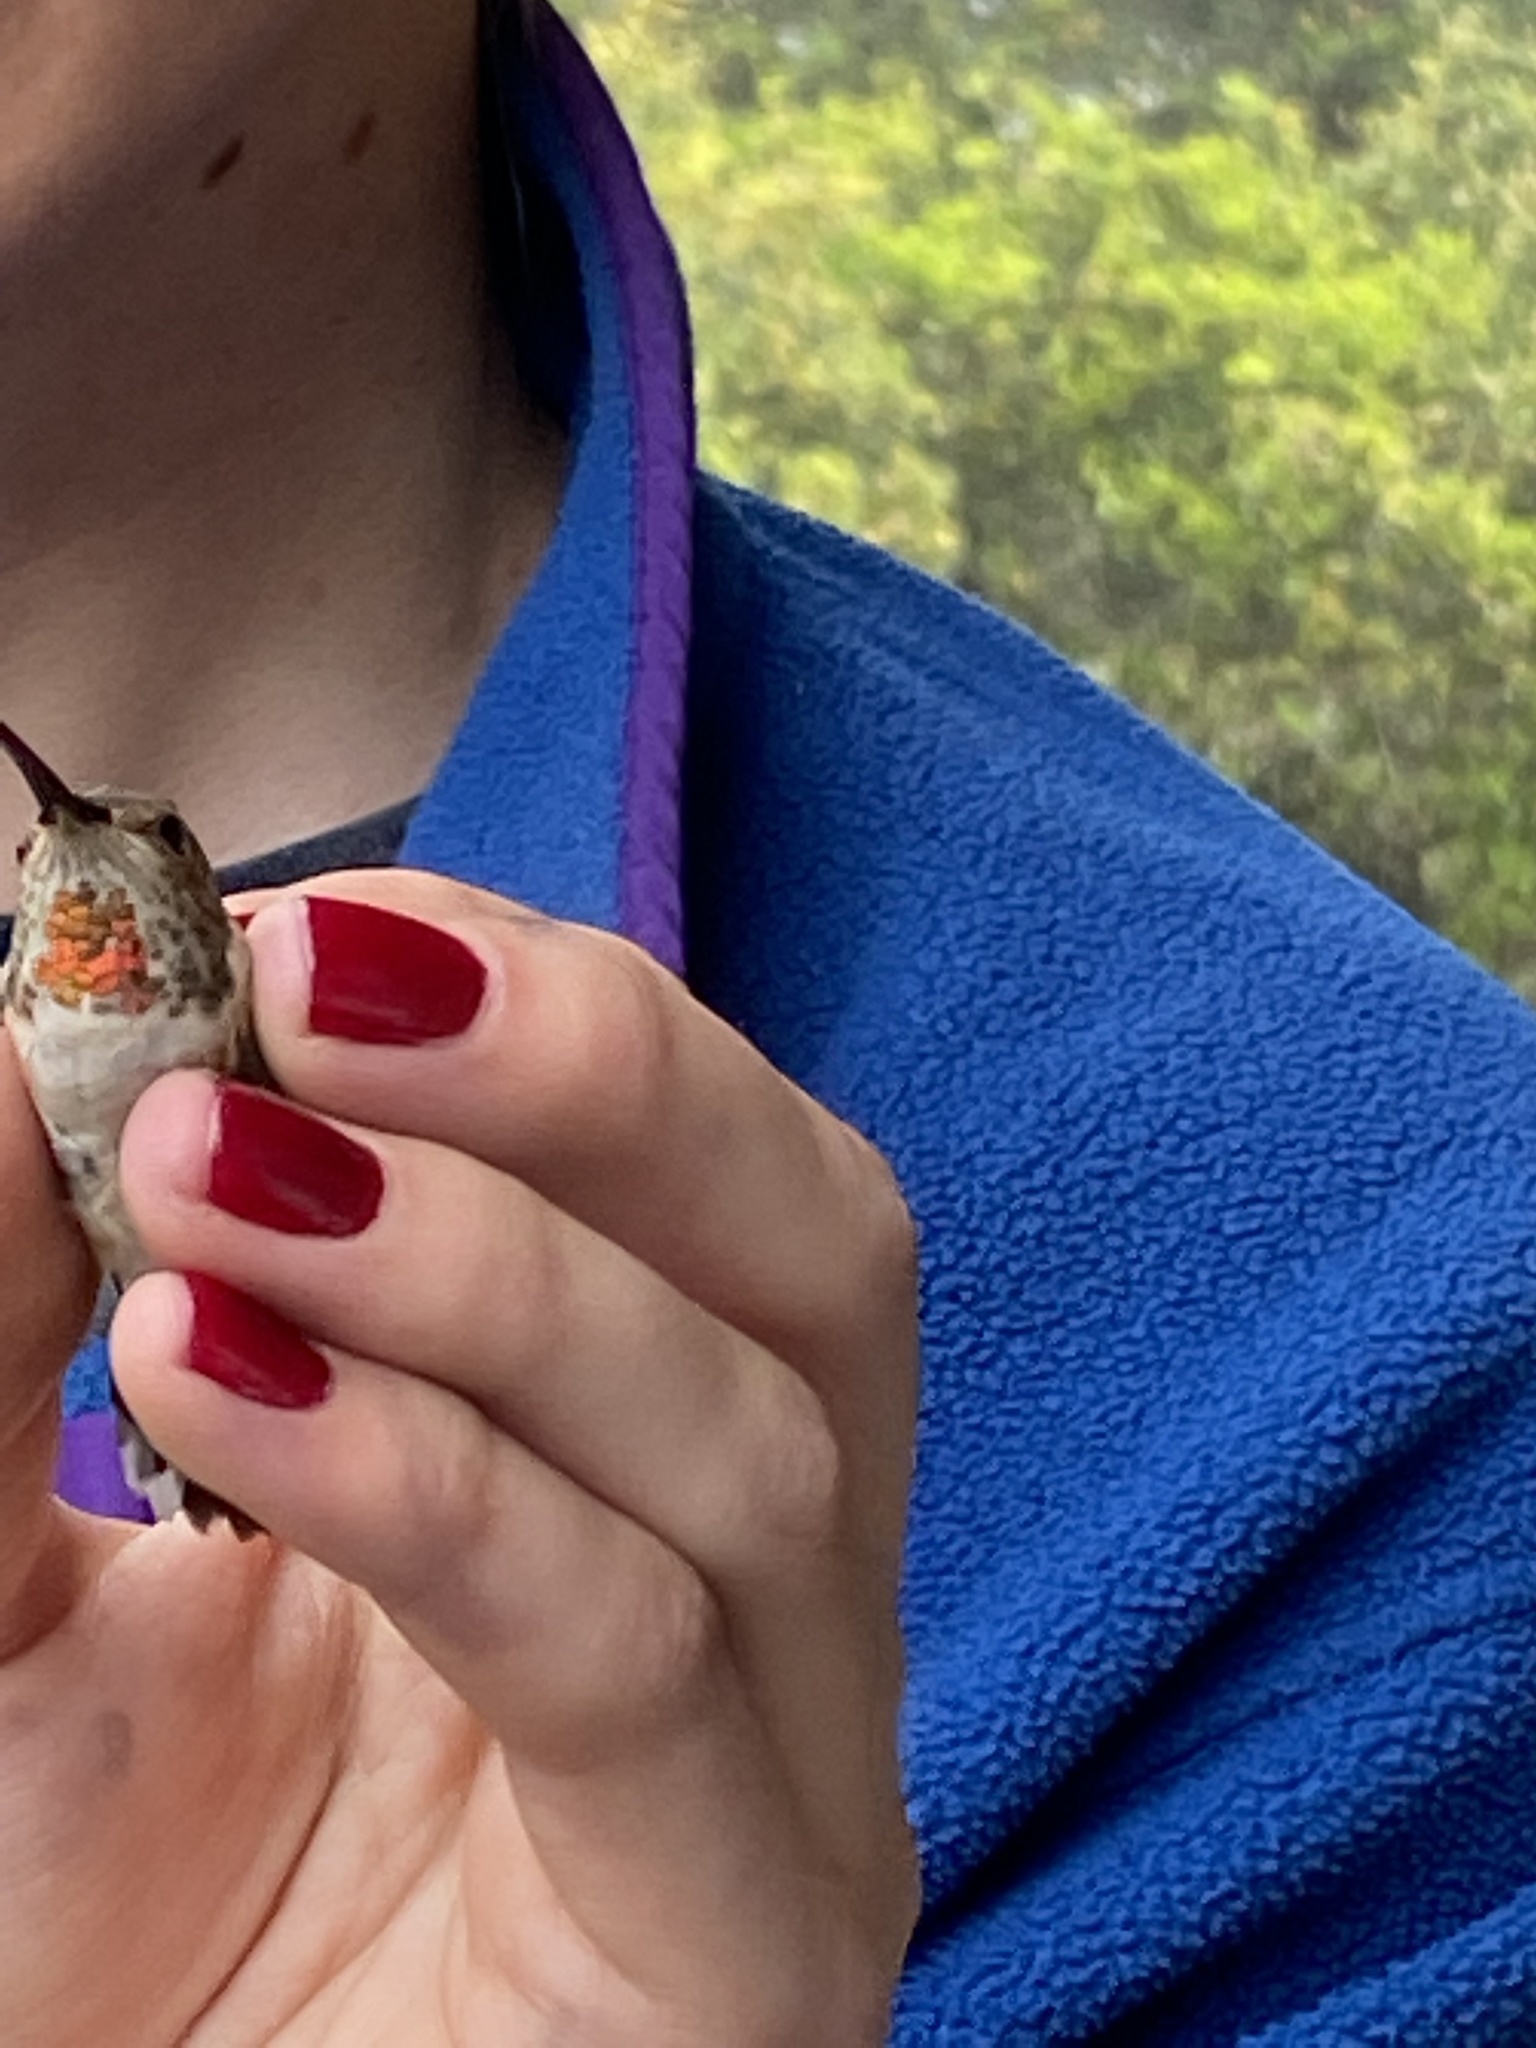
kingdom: Animalia
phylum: Chordata
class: Aves
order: Apodiformes
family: Trochilidae
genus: Selasphorus
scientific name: Selasphorus sasin
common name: Allen's hummingbird
